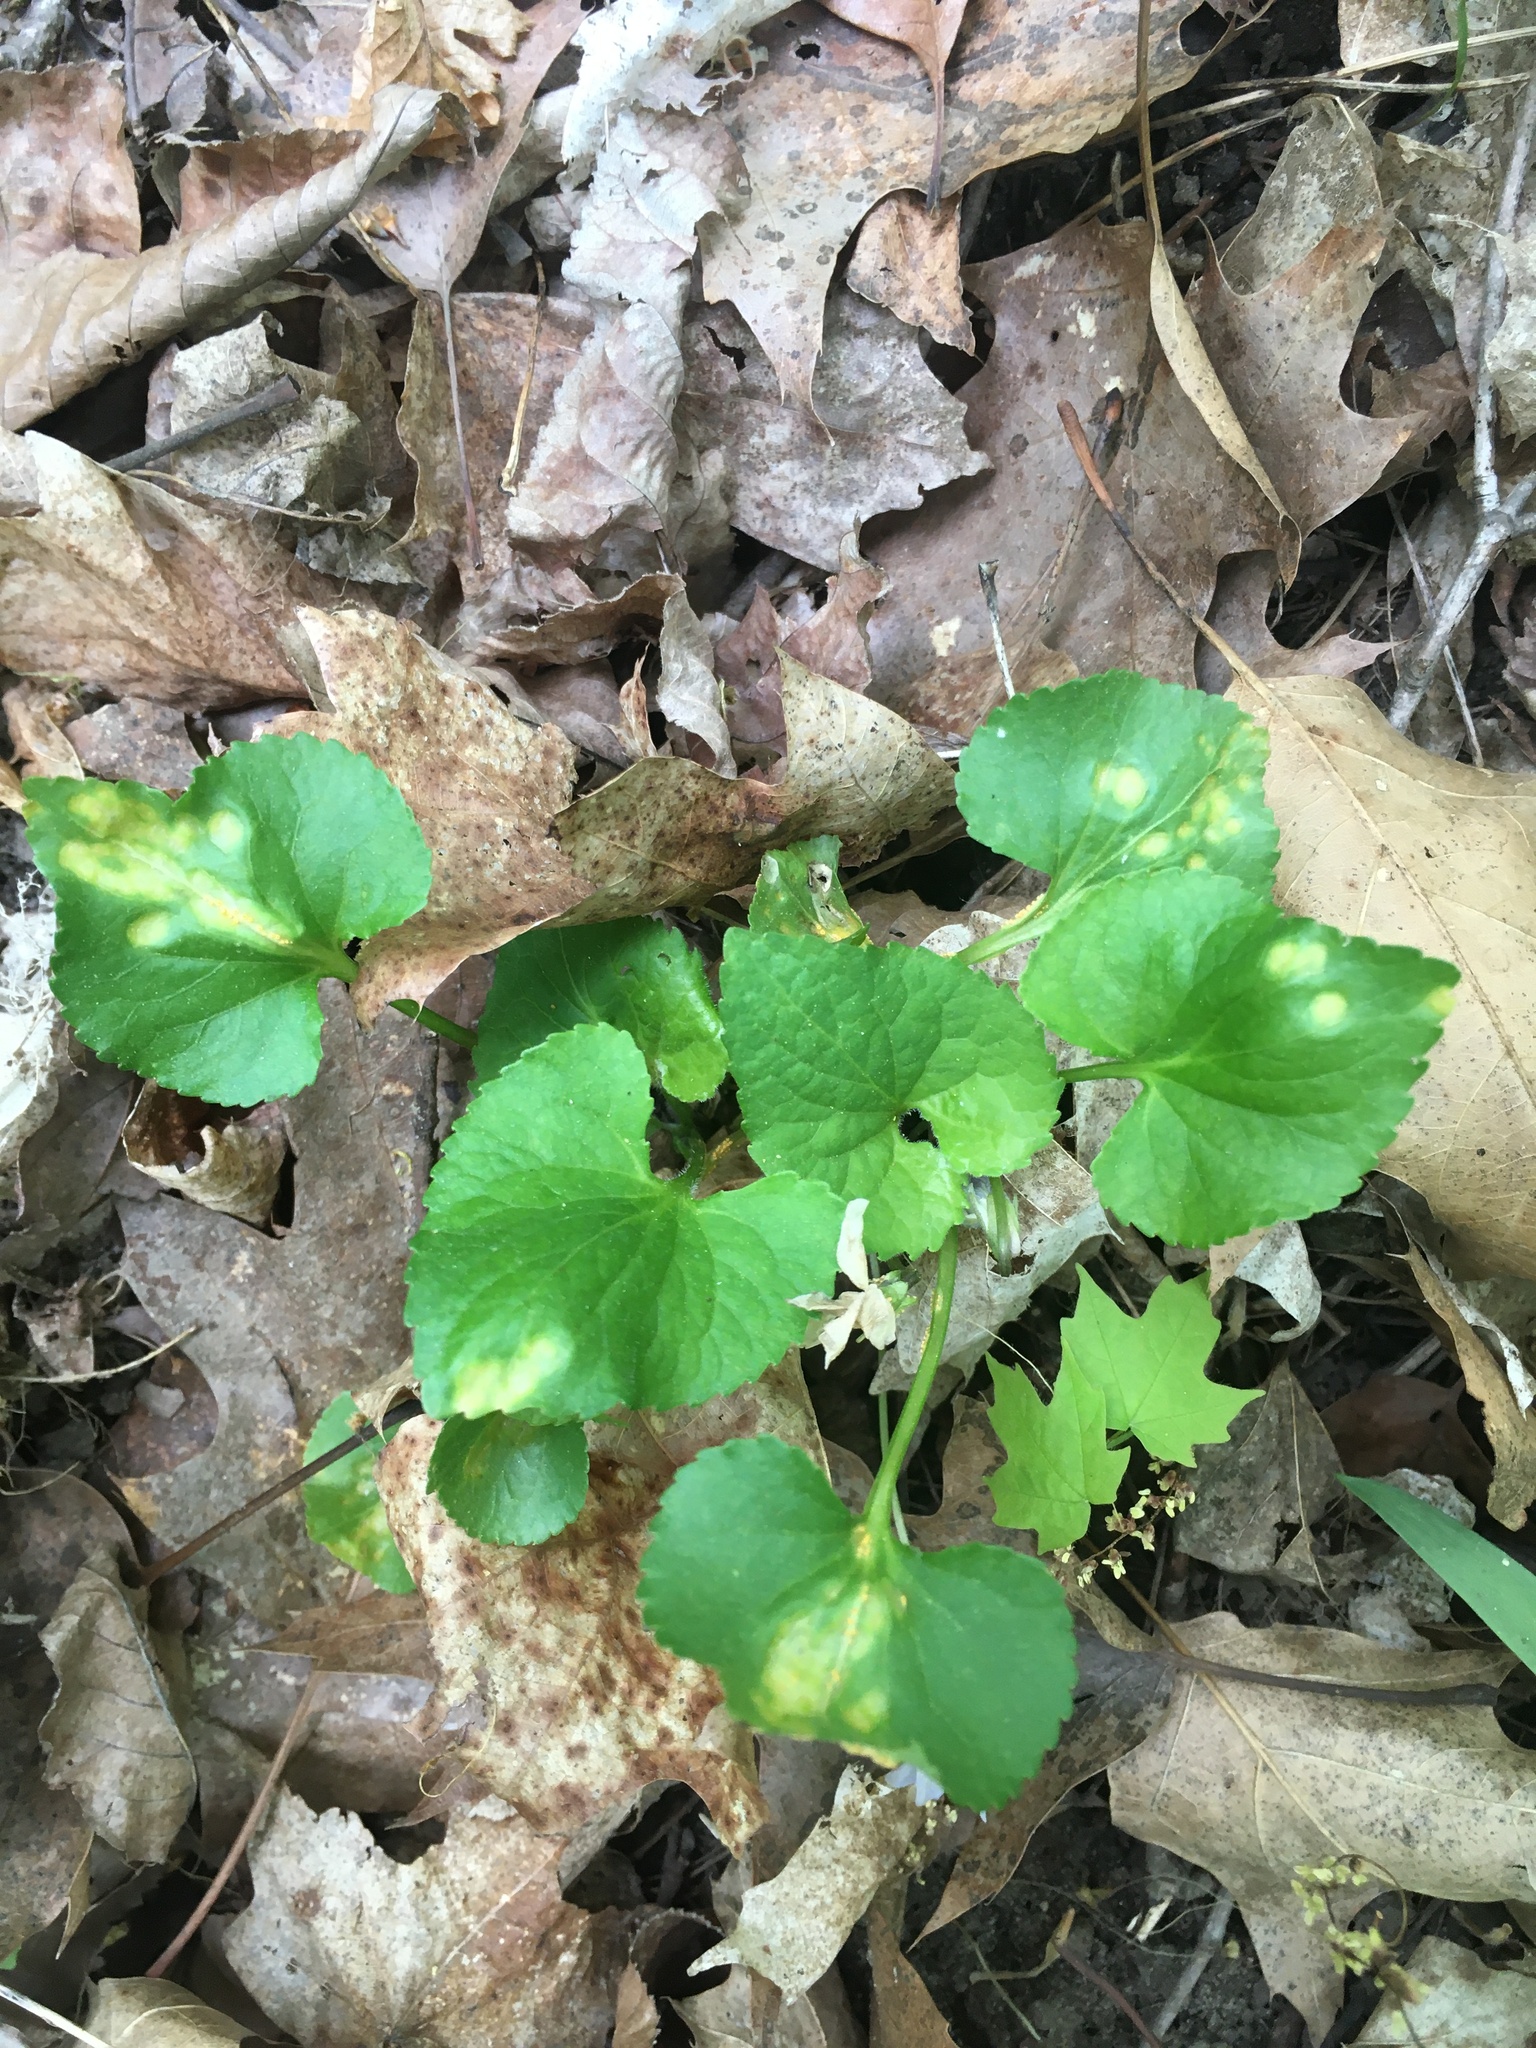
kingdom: Fungi
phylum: Basidiomycota
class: Pucciniomycetes
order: Pucciniales
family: Pucciniaceae
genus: Puccinia
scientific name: Puccinia violae
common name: Violet rust
